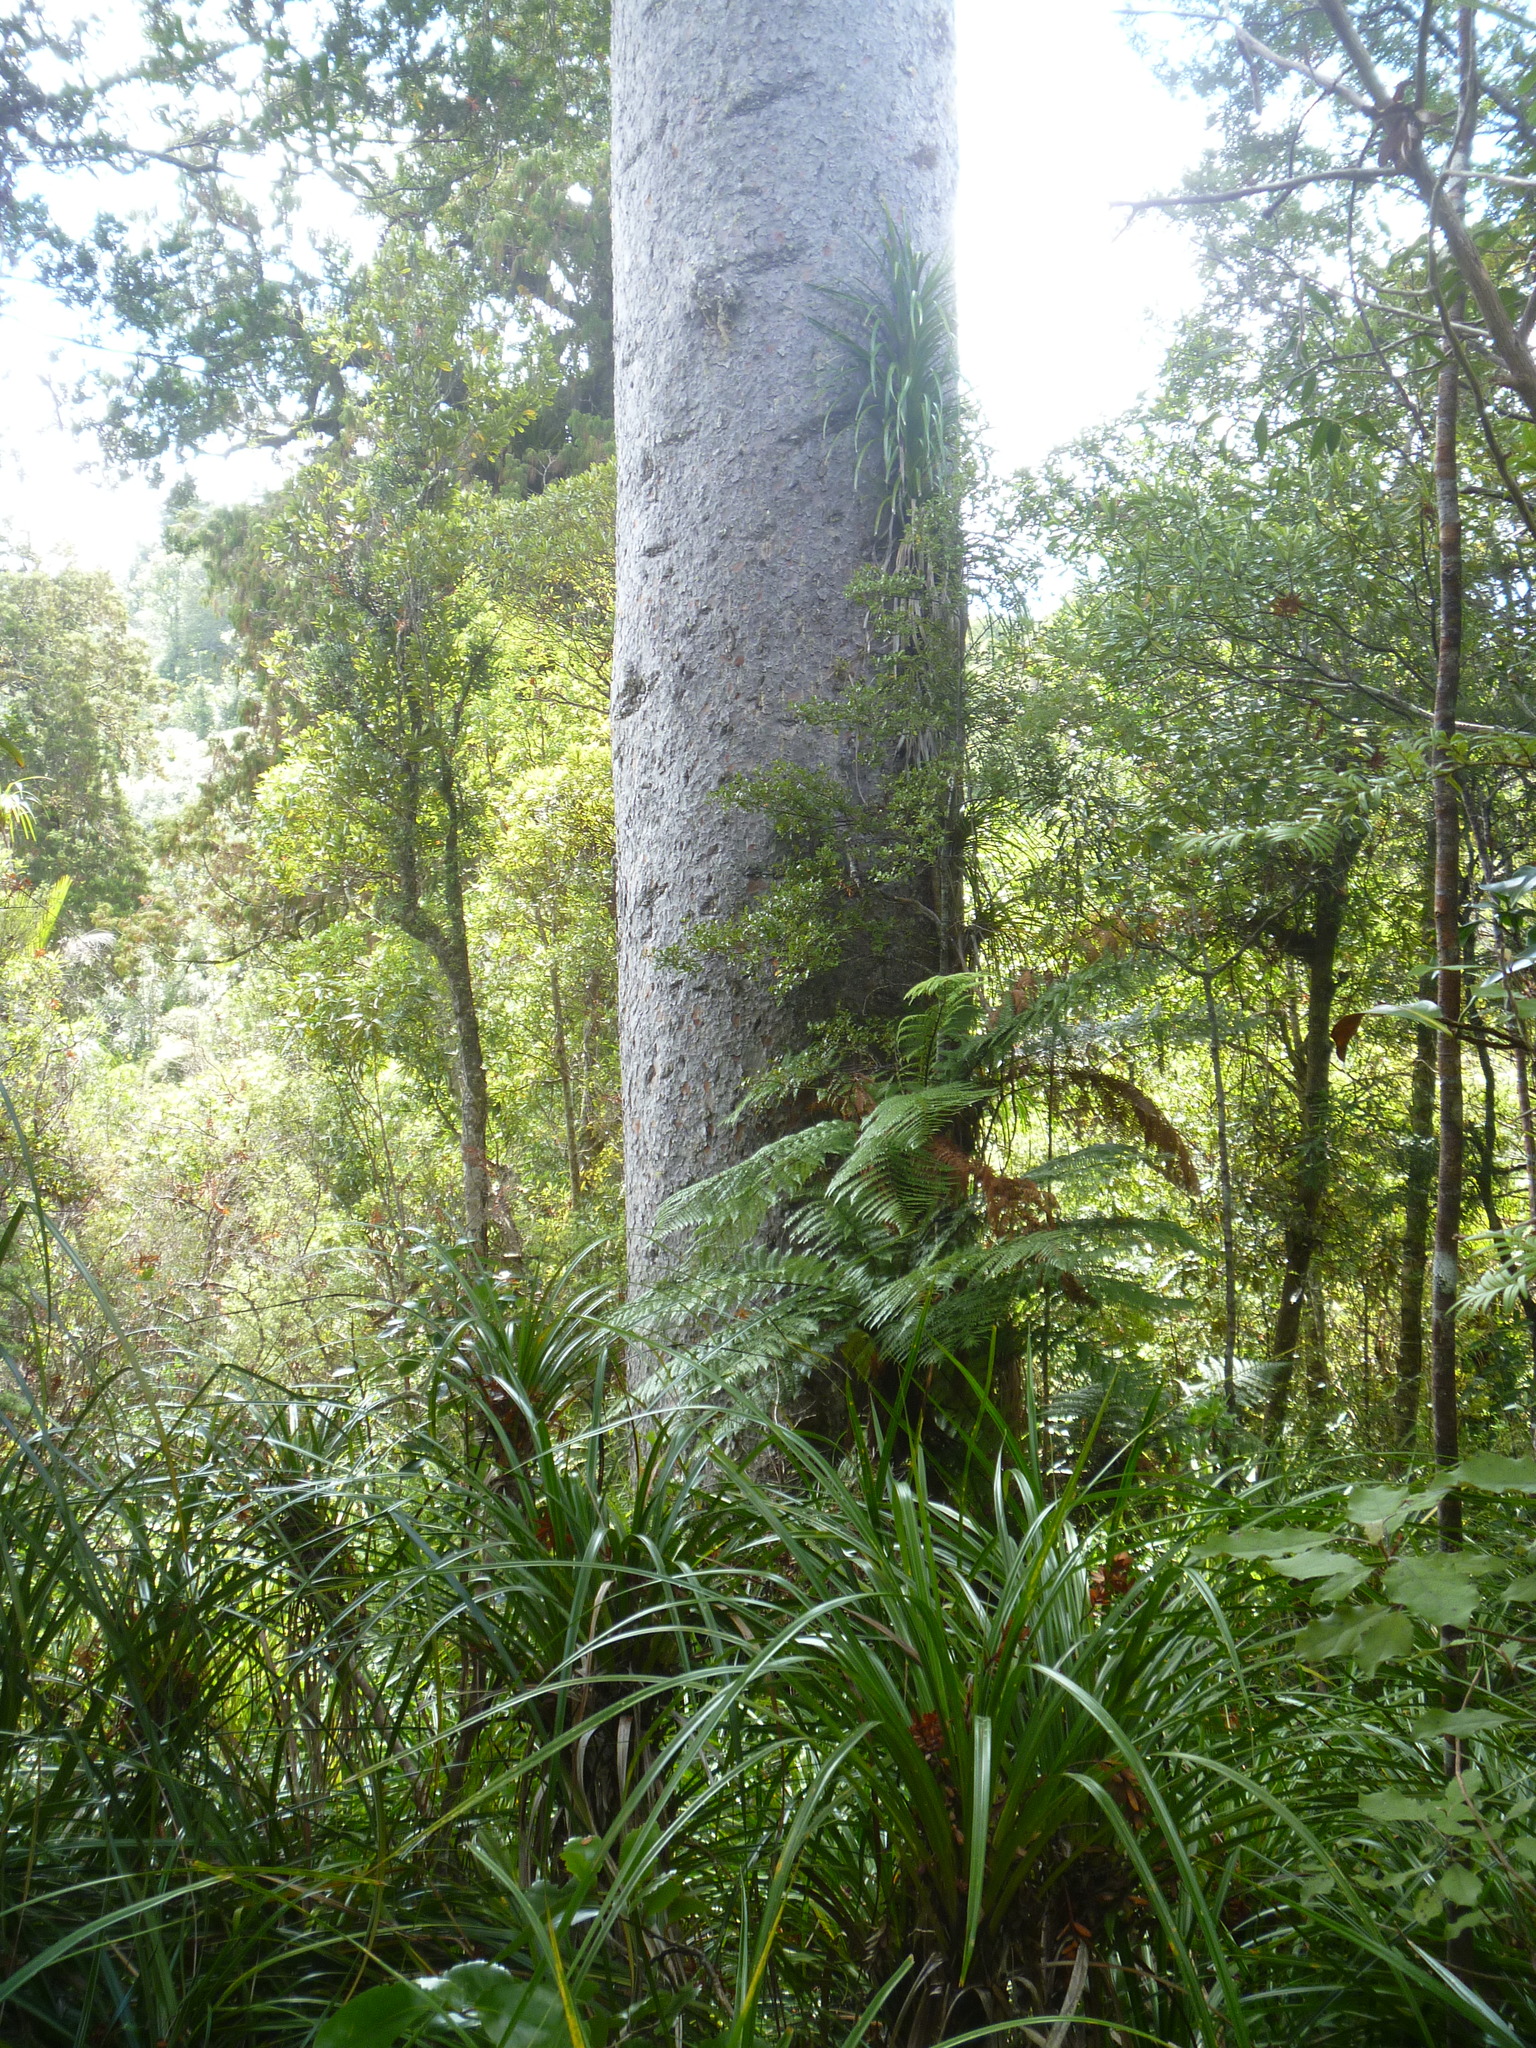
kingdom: Plantae
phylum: Tracheophyta
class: Pinopsida
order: Pinales
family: Araucariaceae
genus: Agathis
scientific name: Agathis australis
